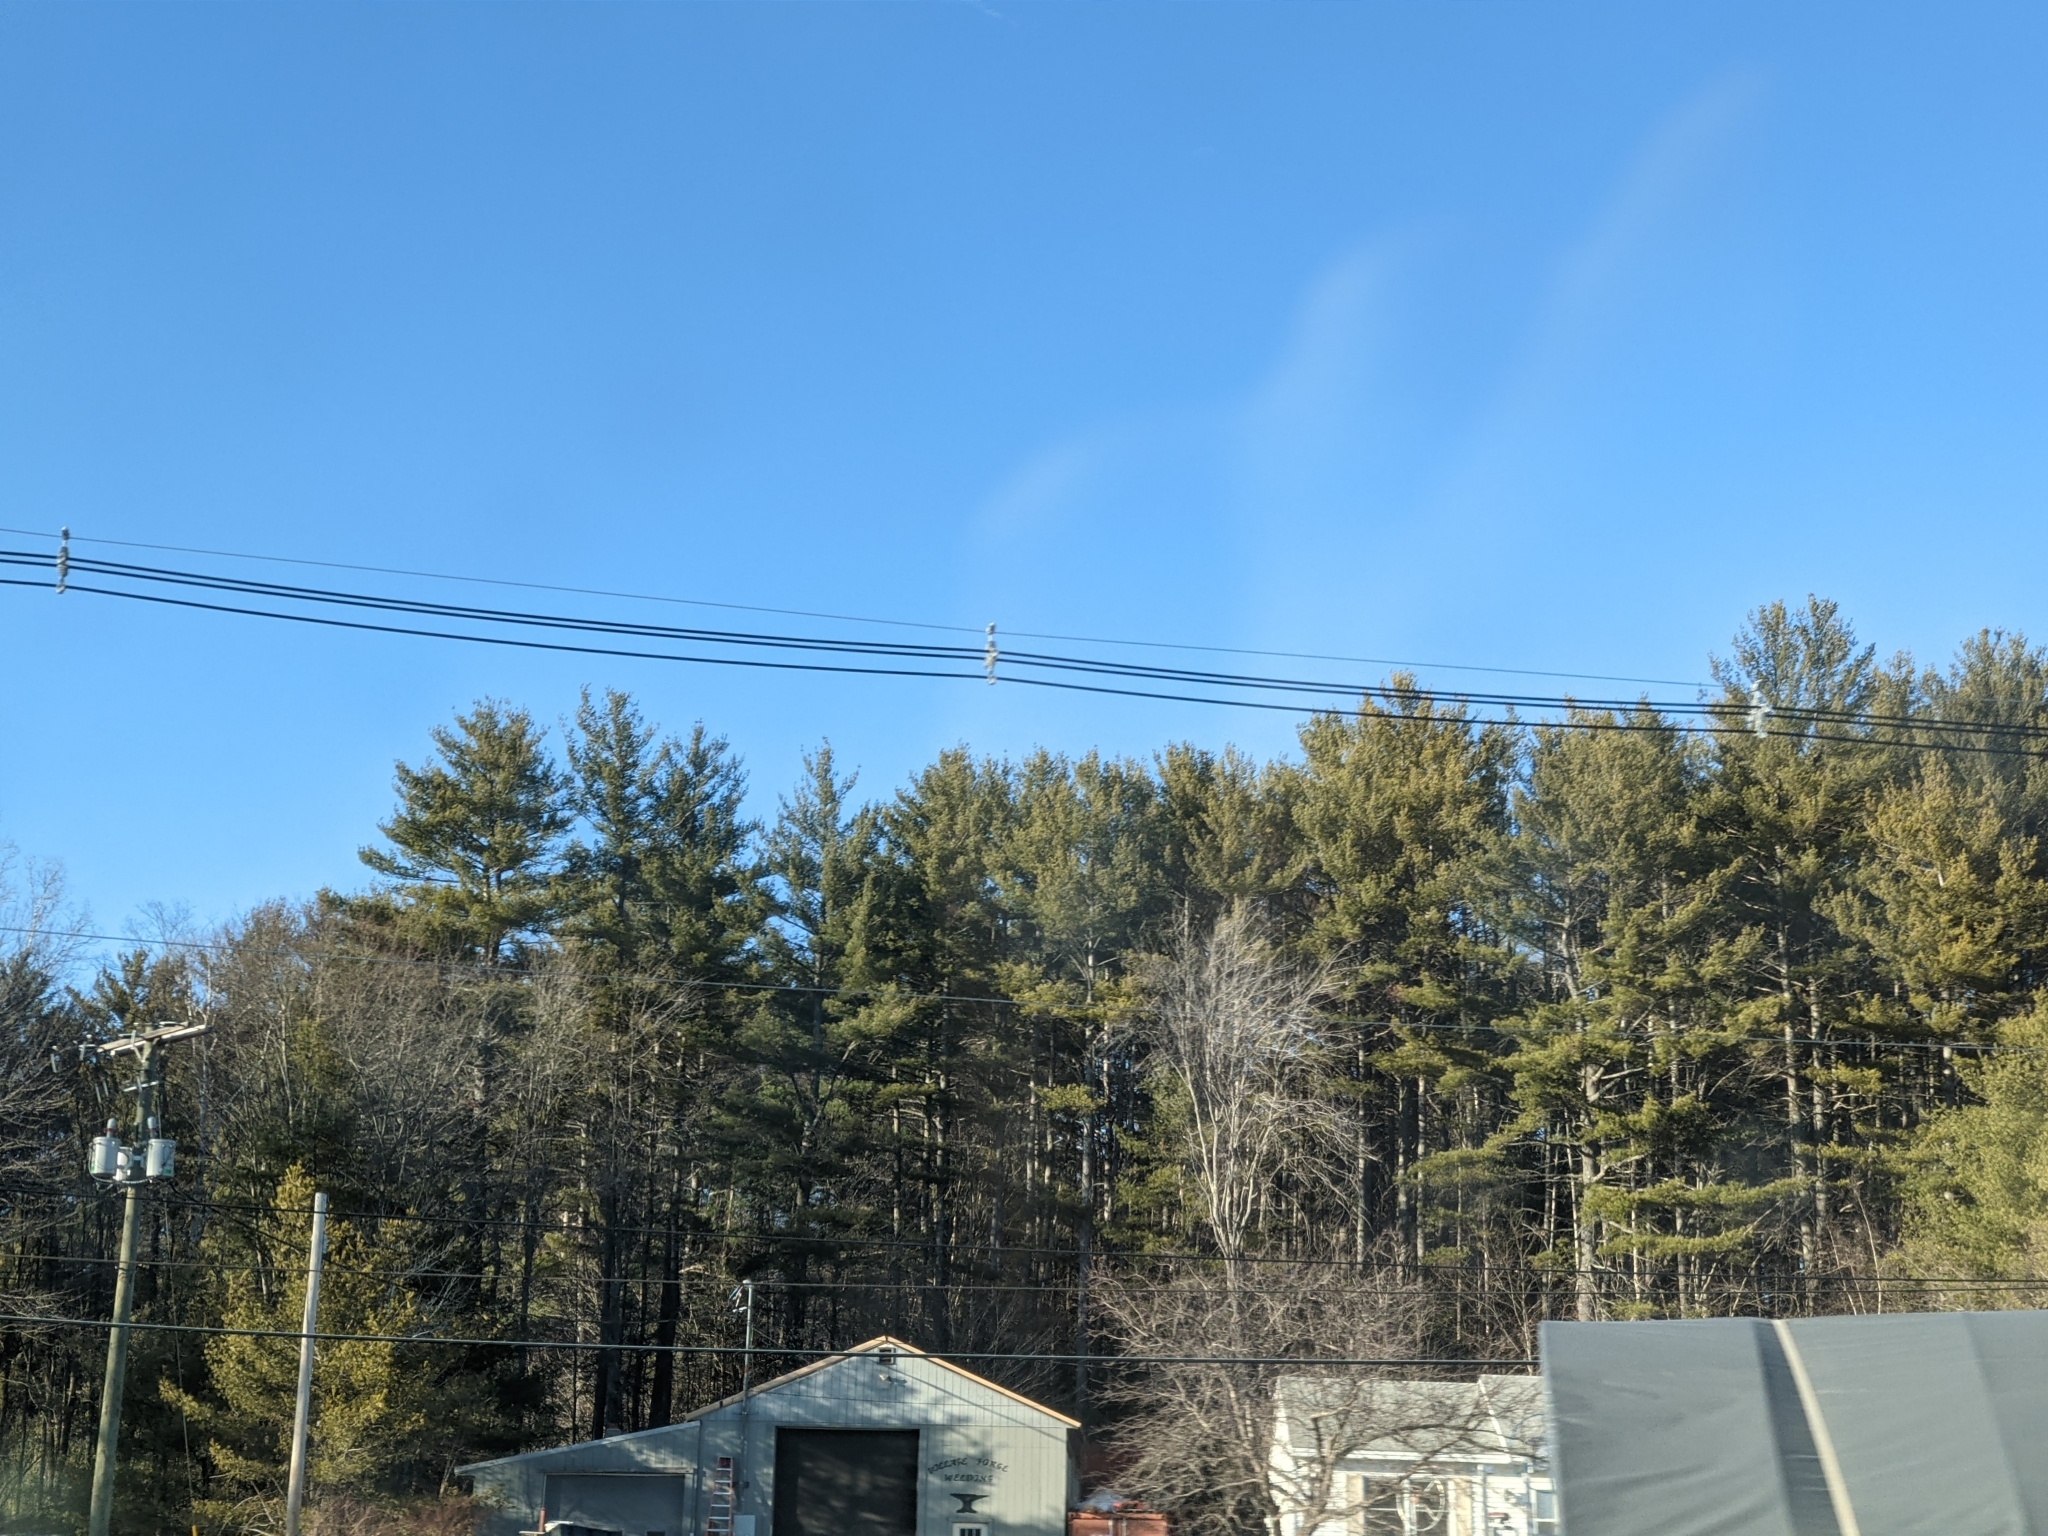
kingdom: Plantae
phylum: Tracheophyta
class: Pinopsida
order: Pinales
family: Pinaceae
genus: Pinus
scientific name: Pinus strobus
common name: Weymouth pine
